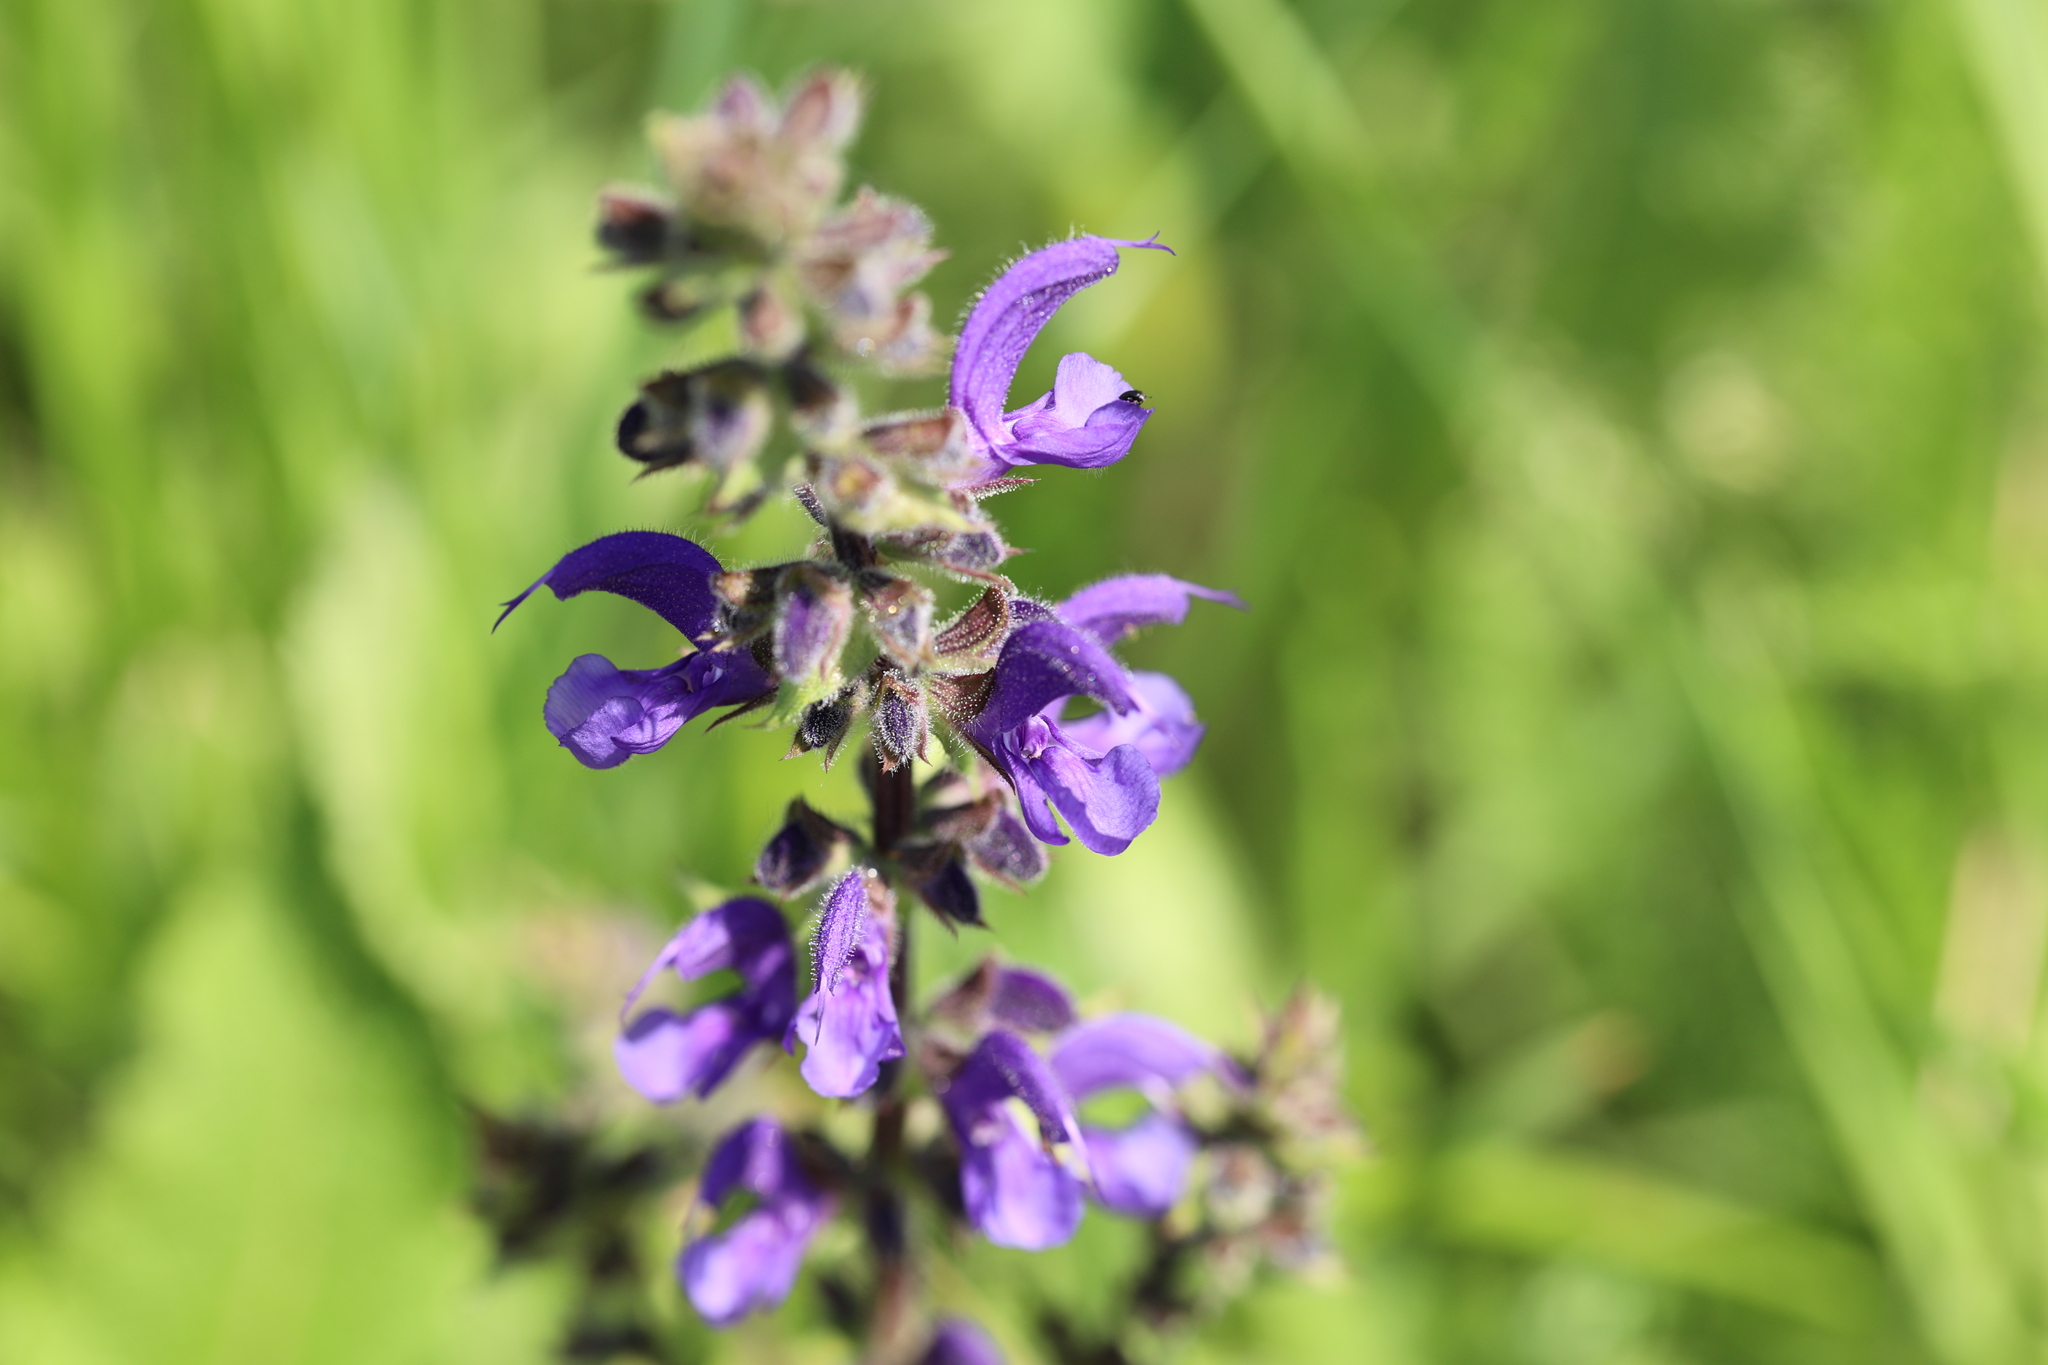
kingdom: Plantae
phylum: Tracheophyta
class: Magnoliopsida
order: Lamiales
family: Lamiaceae
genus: Salvia
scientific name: Salvia pratensis
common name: Meadow sage
